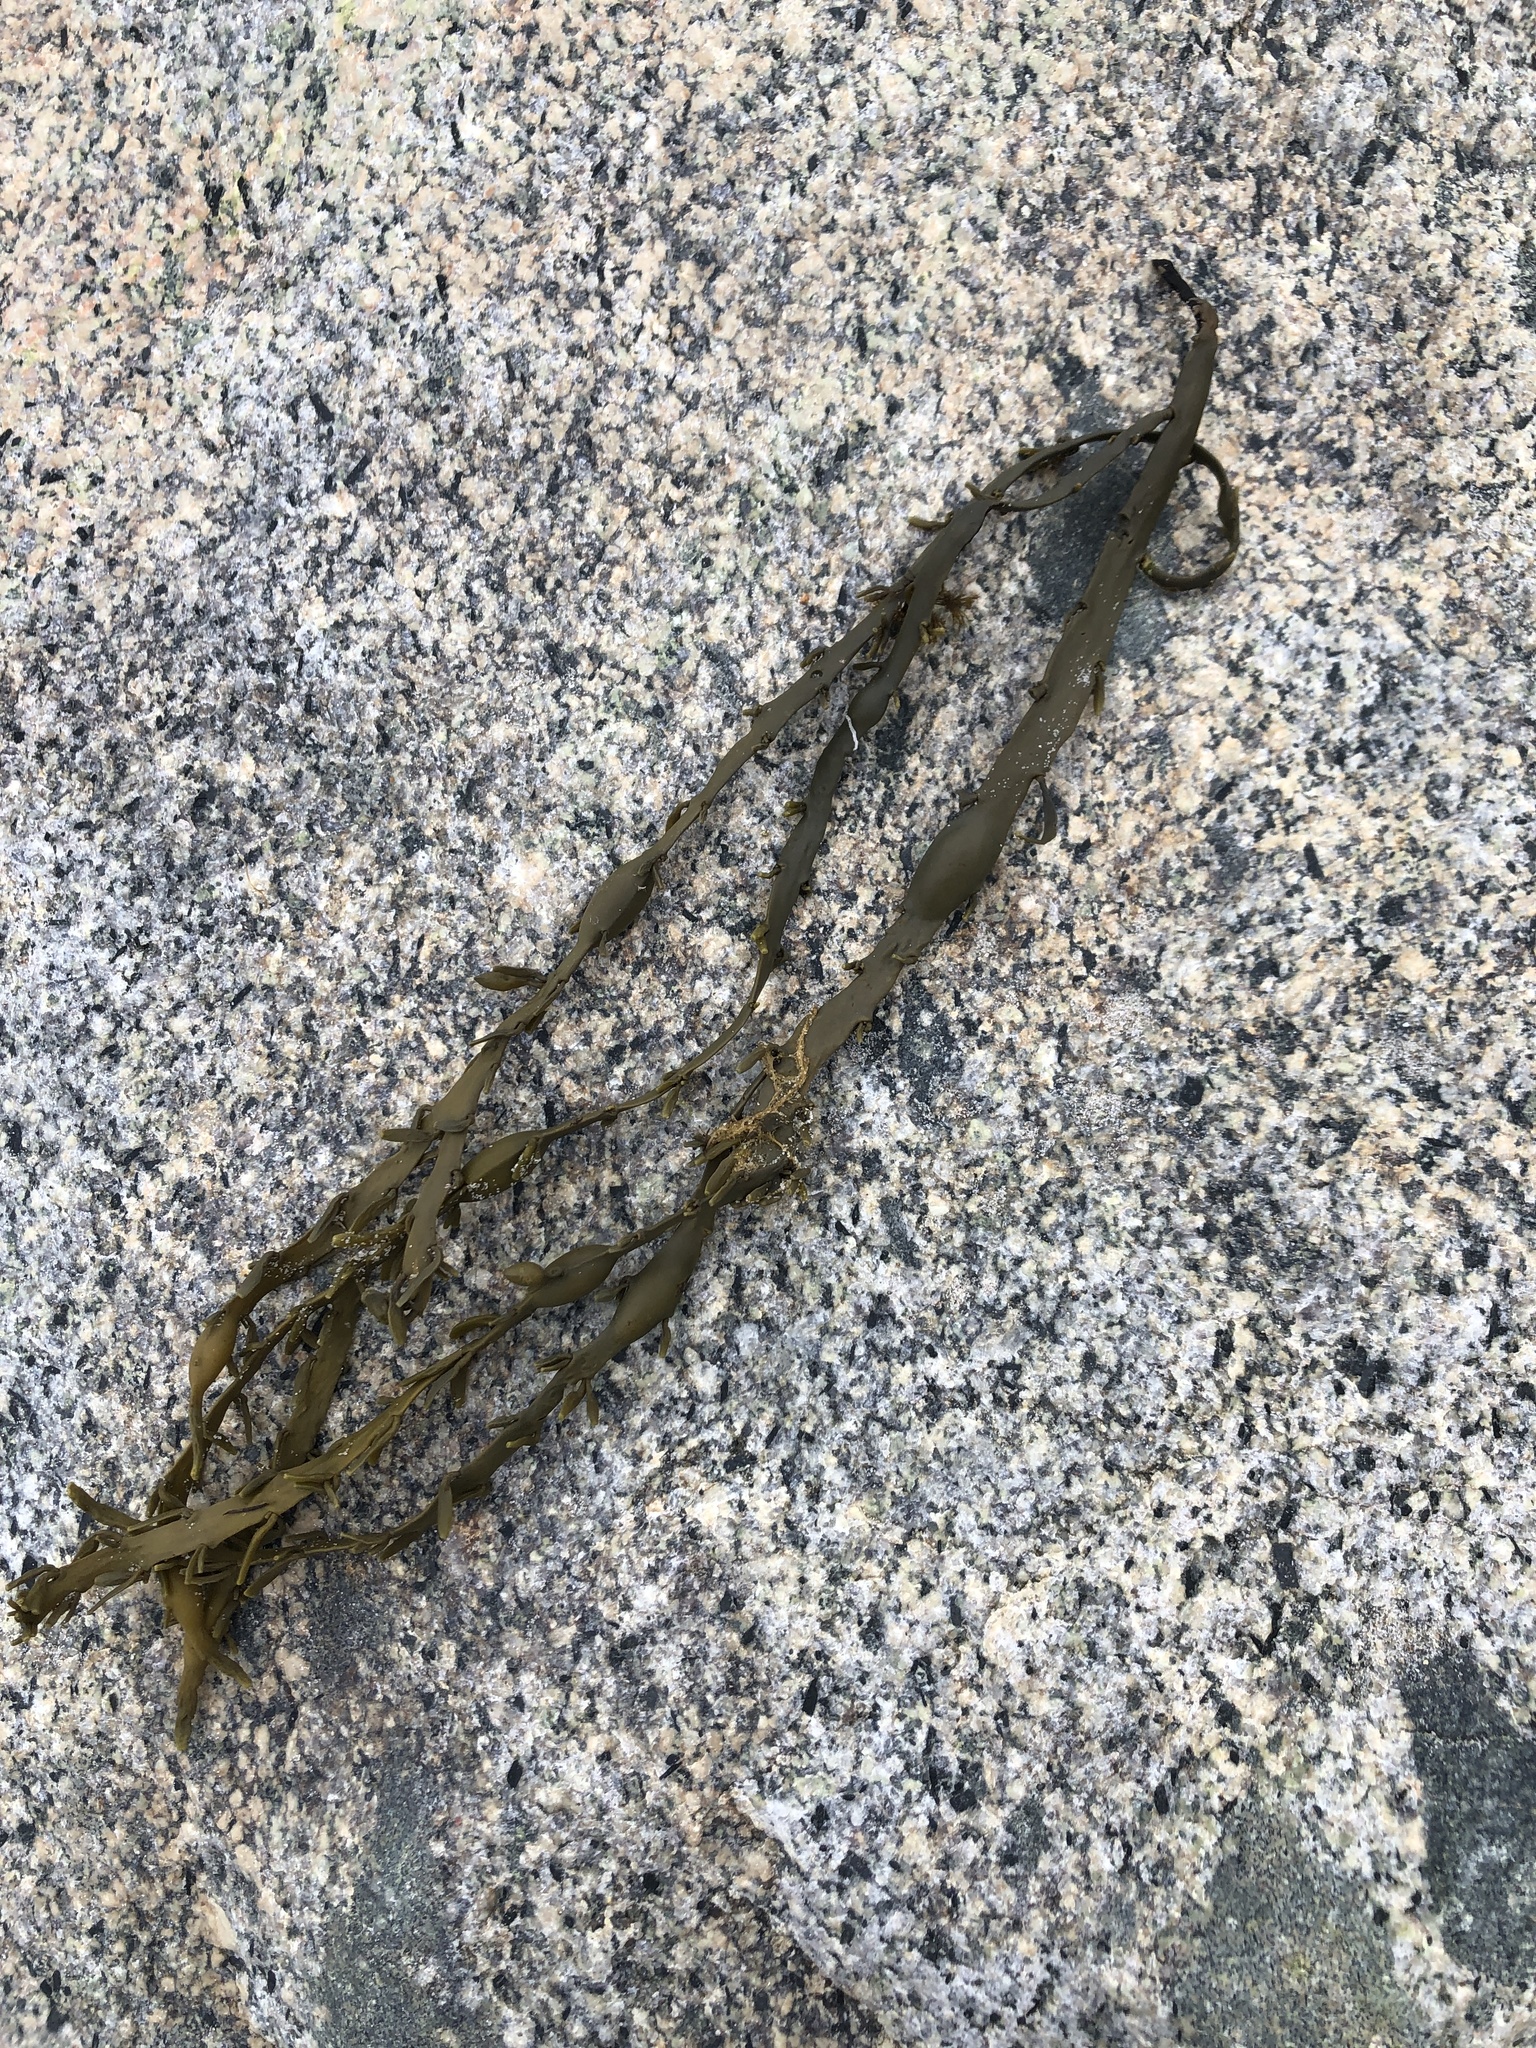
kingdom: Chromista
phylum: Ochrophyta
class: Phaeophyceae
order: Fucales
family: Fucaceae
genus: Ascophyllum
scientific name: Ascophyllum nodosum
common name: Knotted wrack
